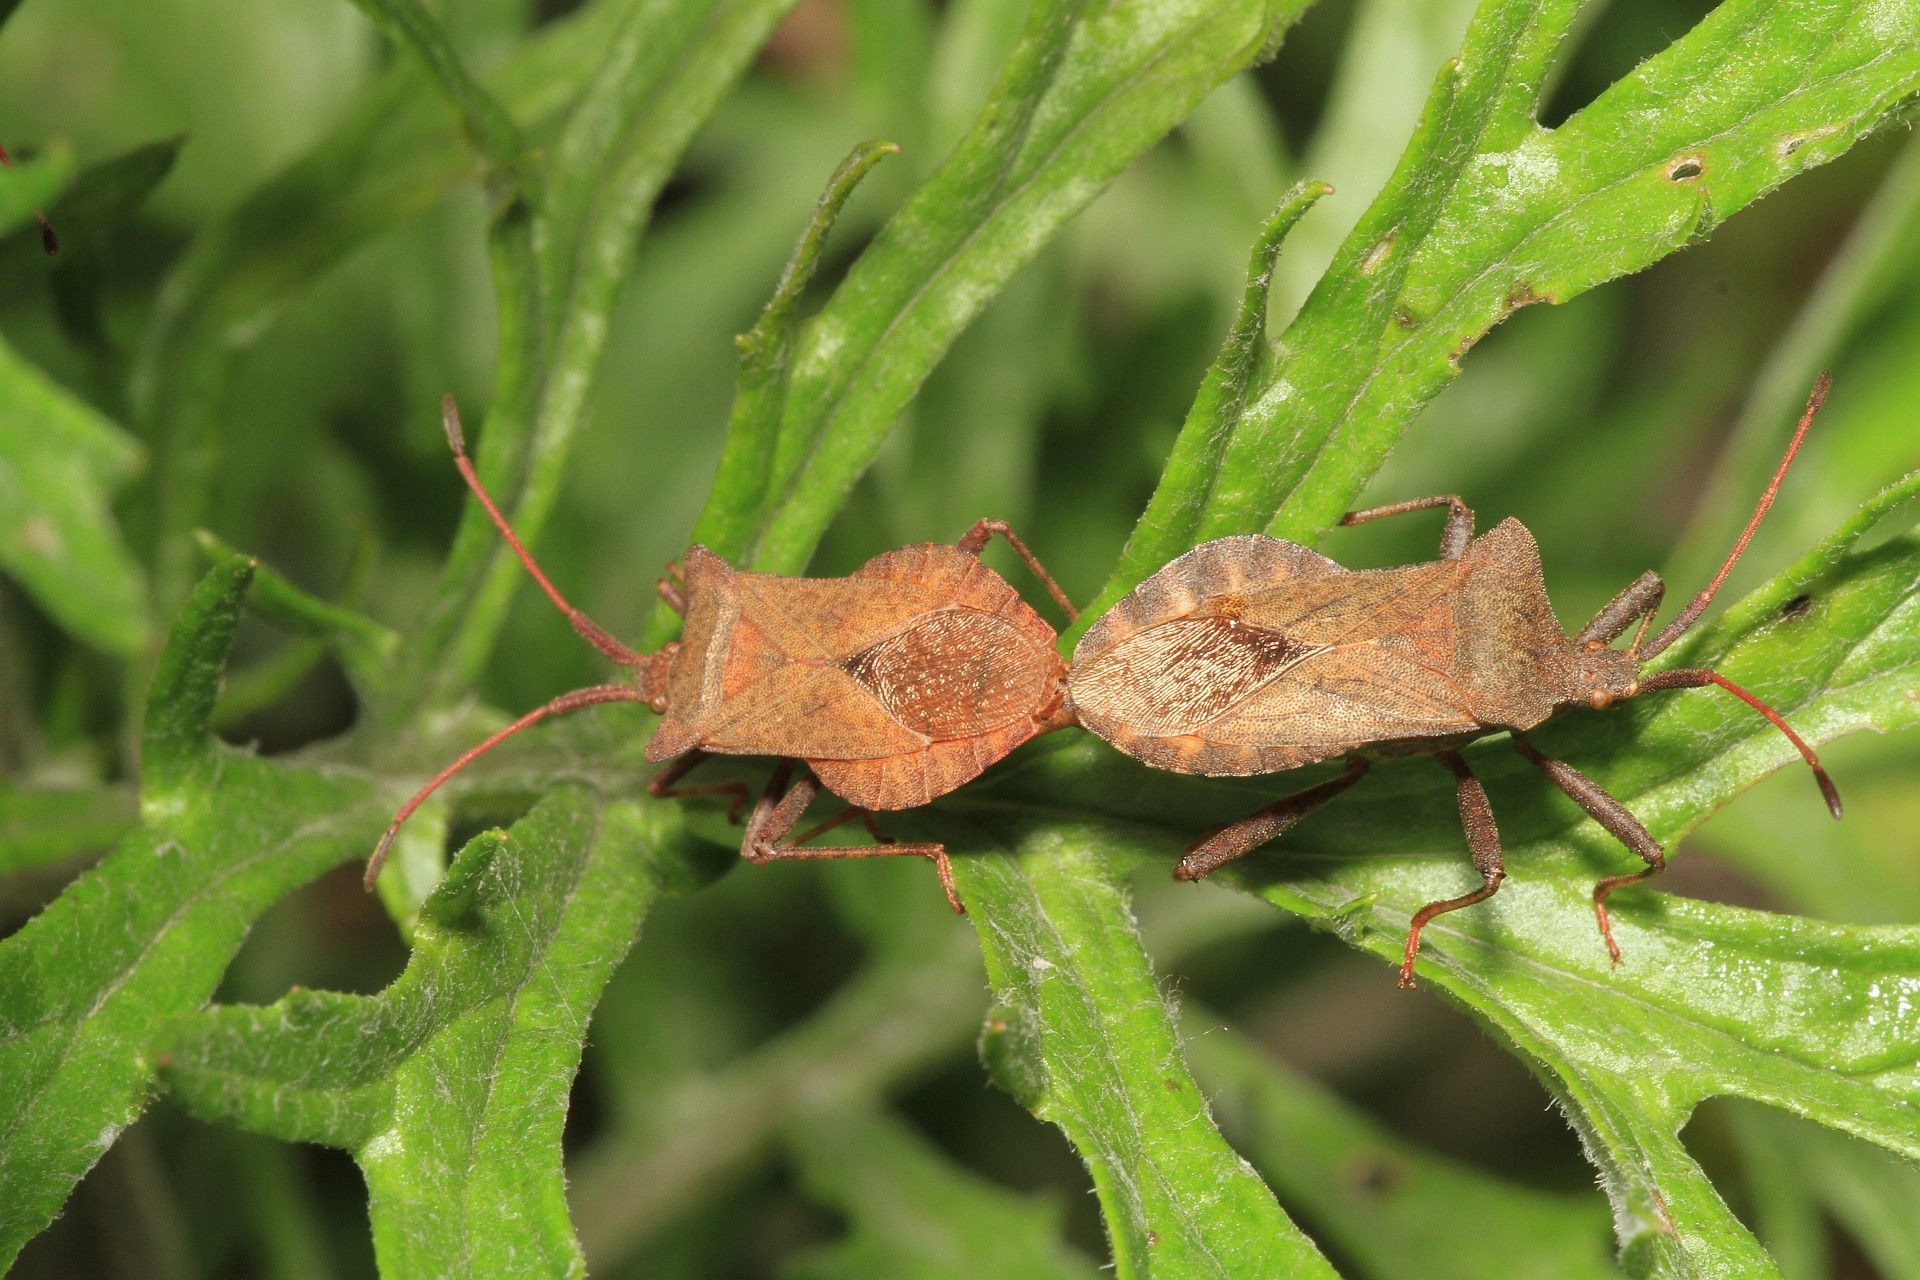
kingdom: Animalia
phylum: Arthropoda
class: Insecta
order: Hemiptera
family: Coreidae
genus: Coreus
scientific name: Coreus marginatus
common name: Dock bug
